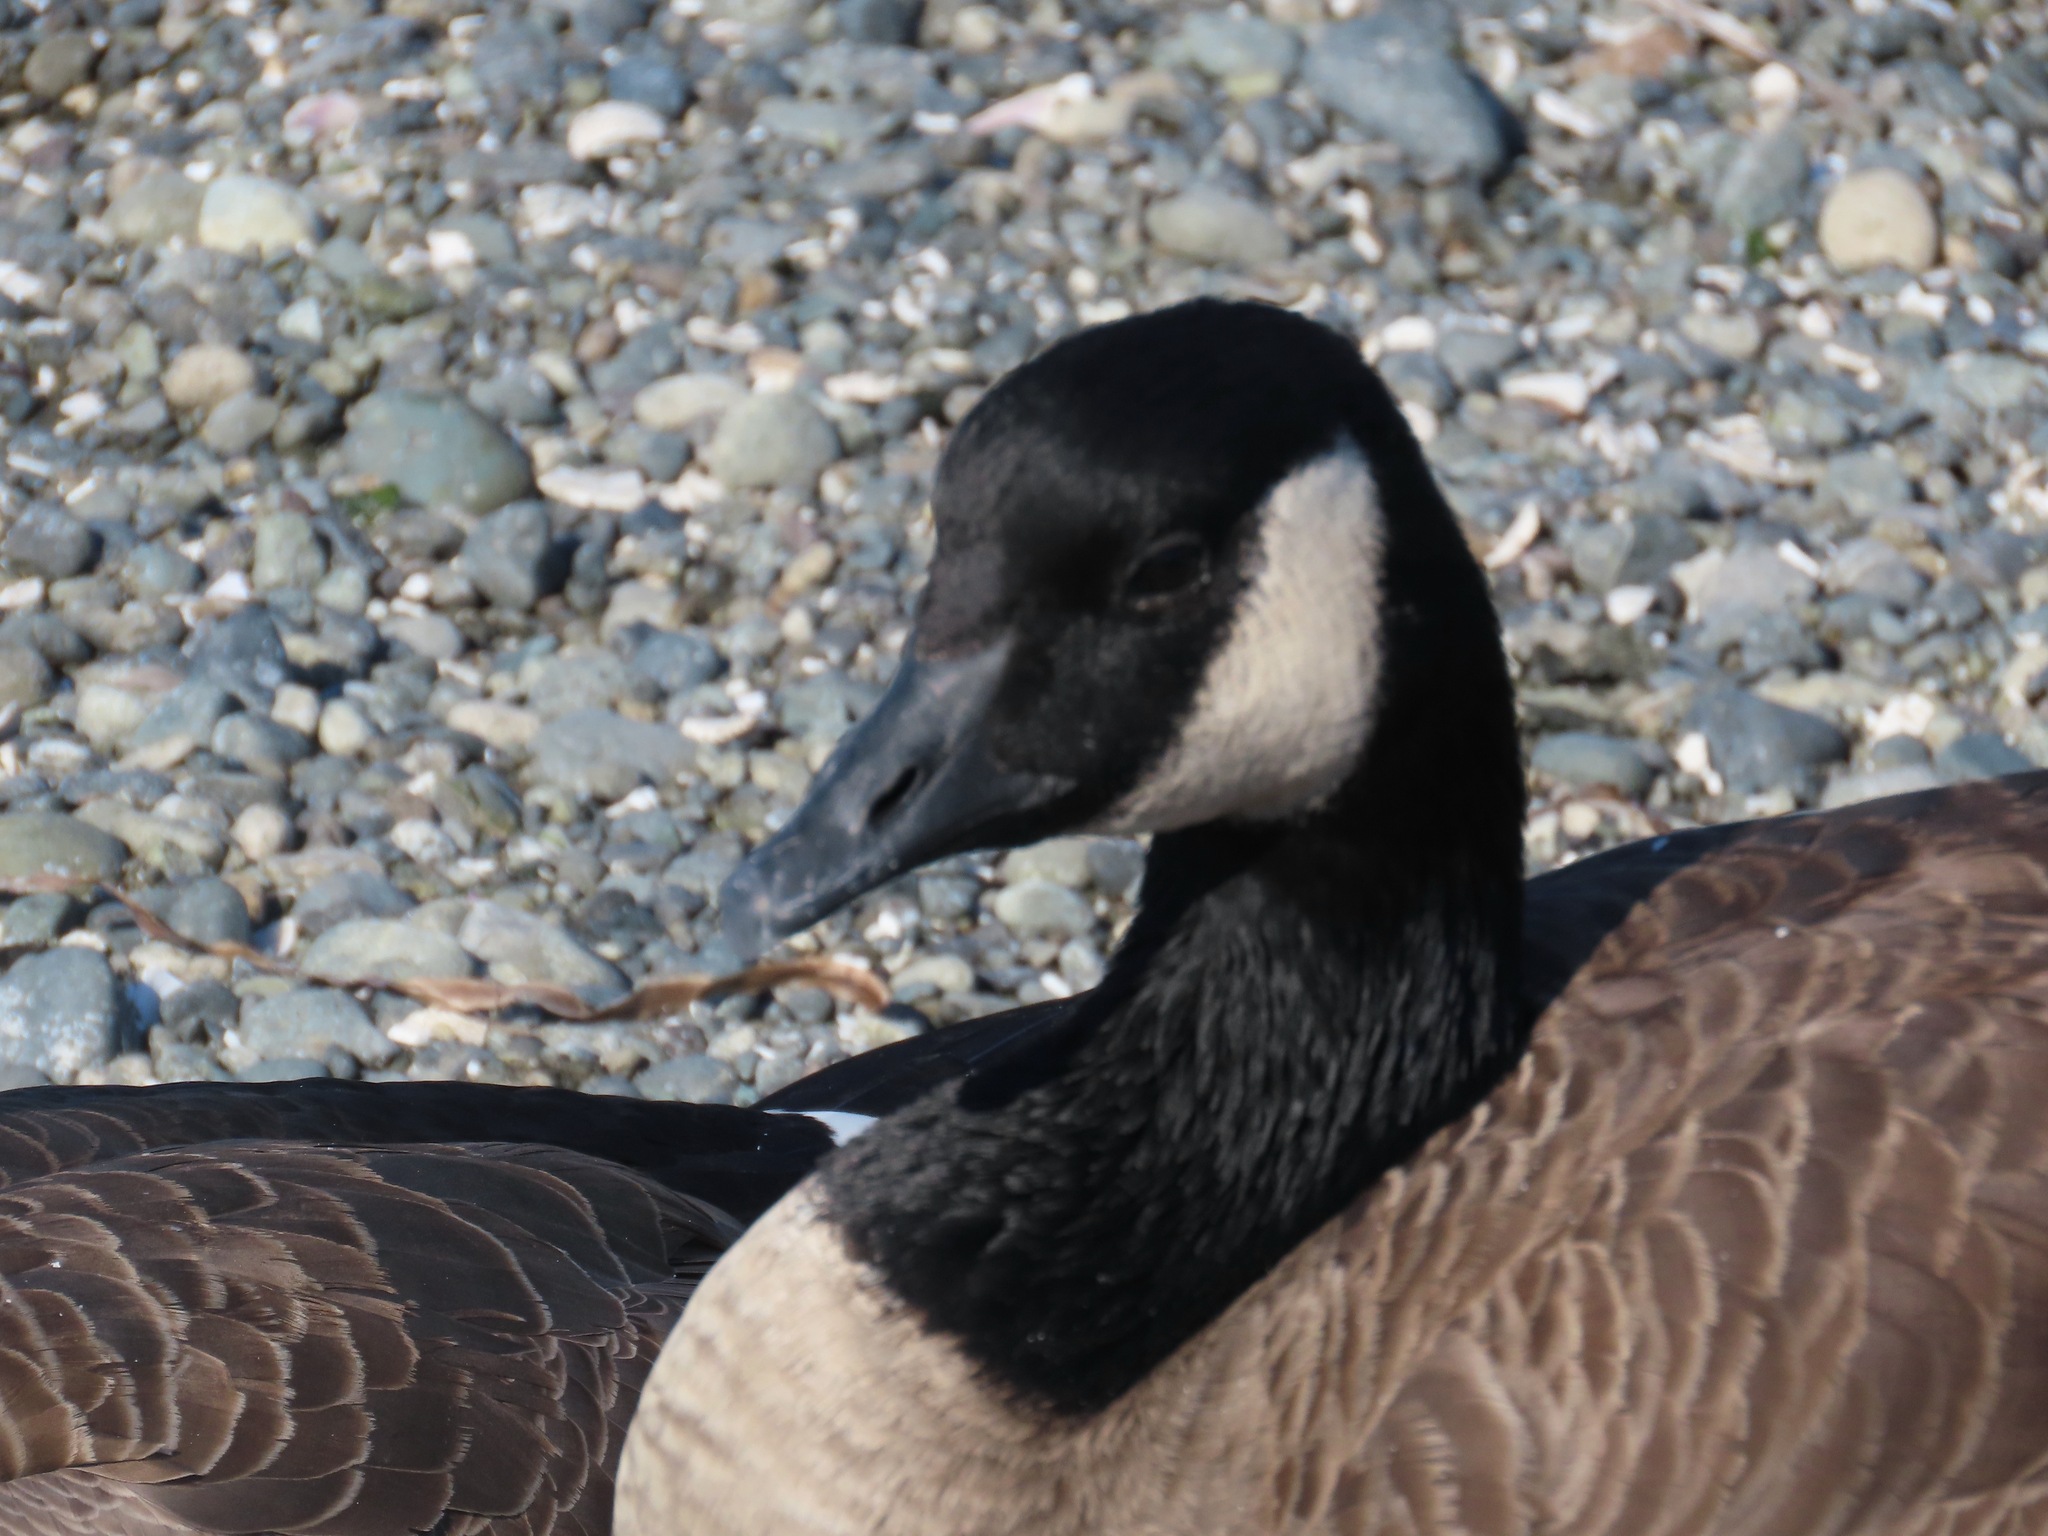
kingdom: Animalia
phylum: Chordata
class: Aves
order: Anseriformes
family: Anatidae
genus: Branta
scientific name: Branta canadensis
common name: Canada goose
